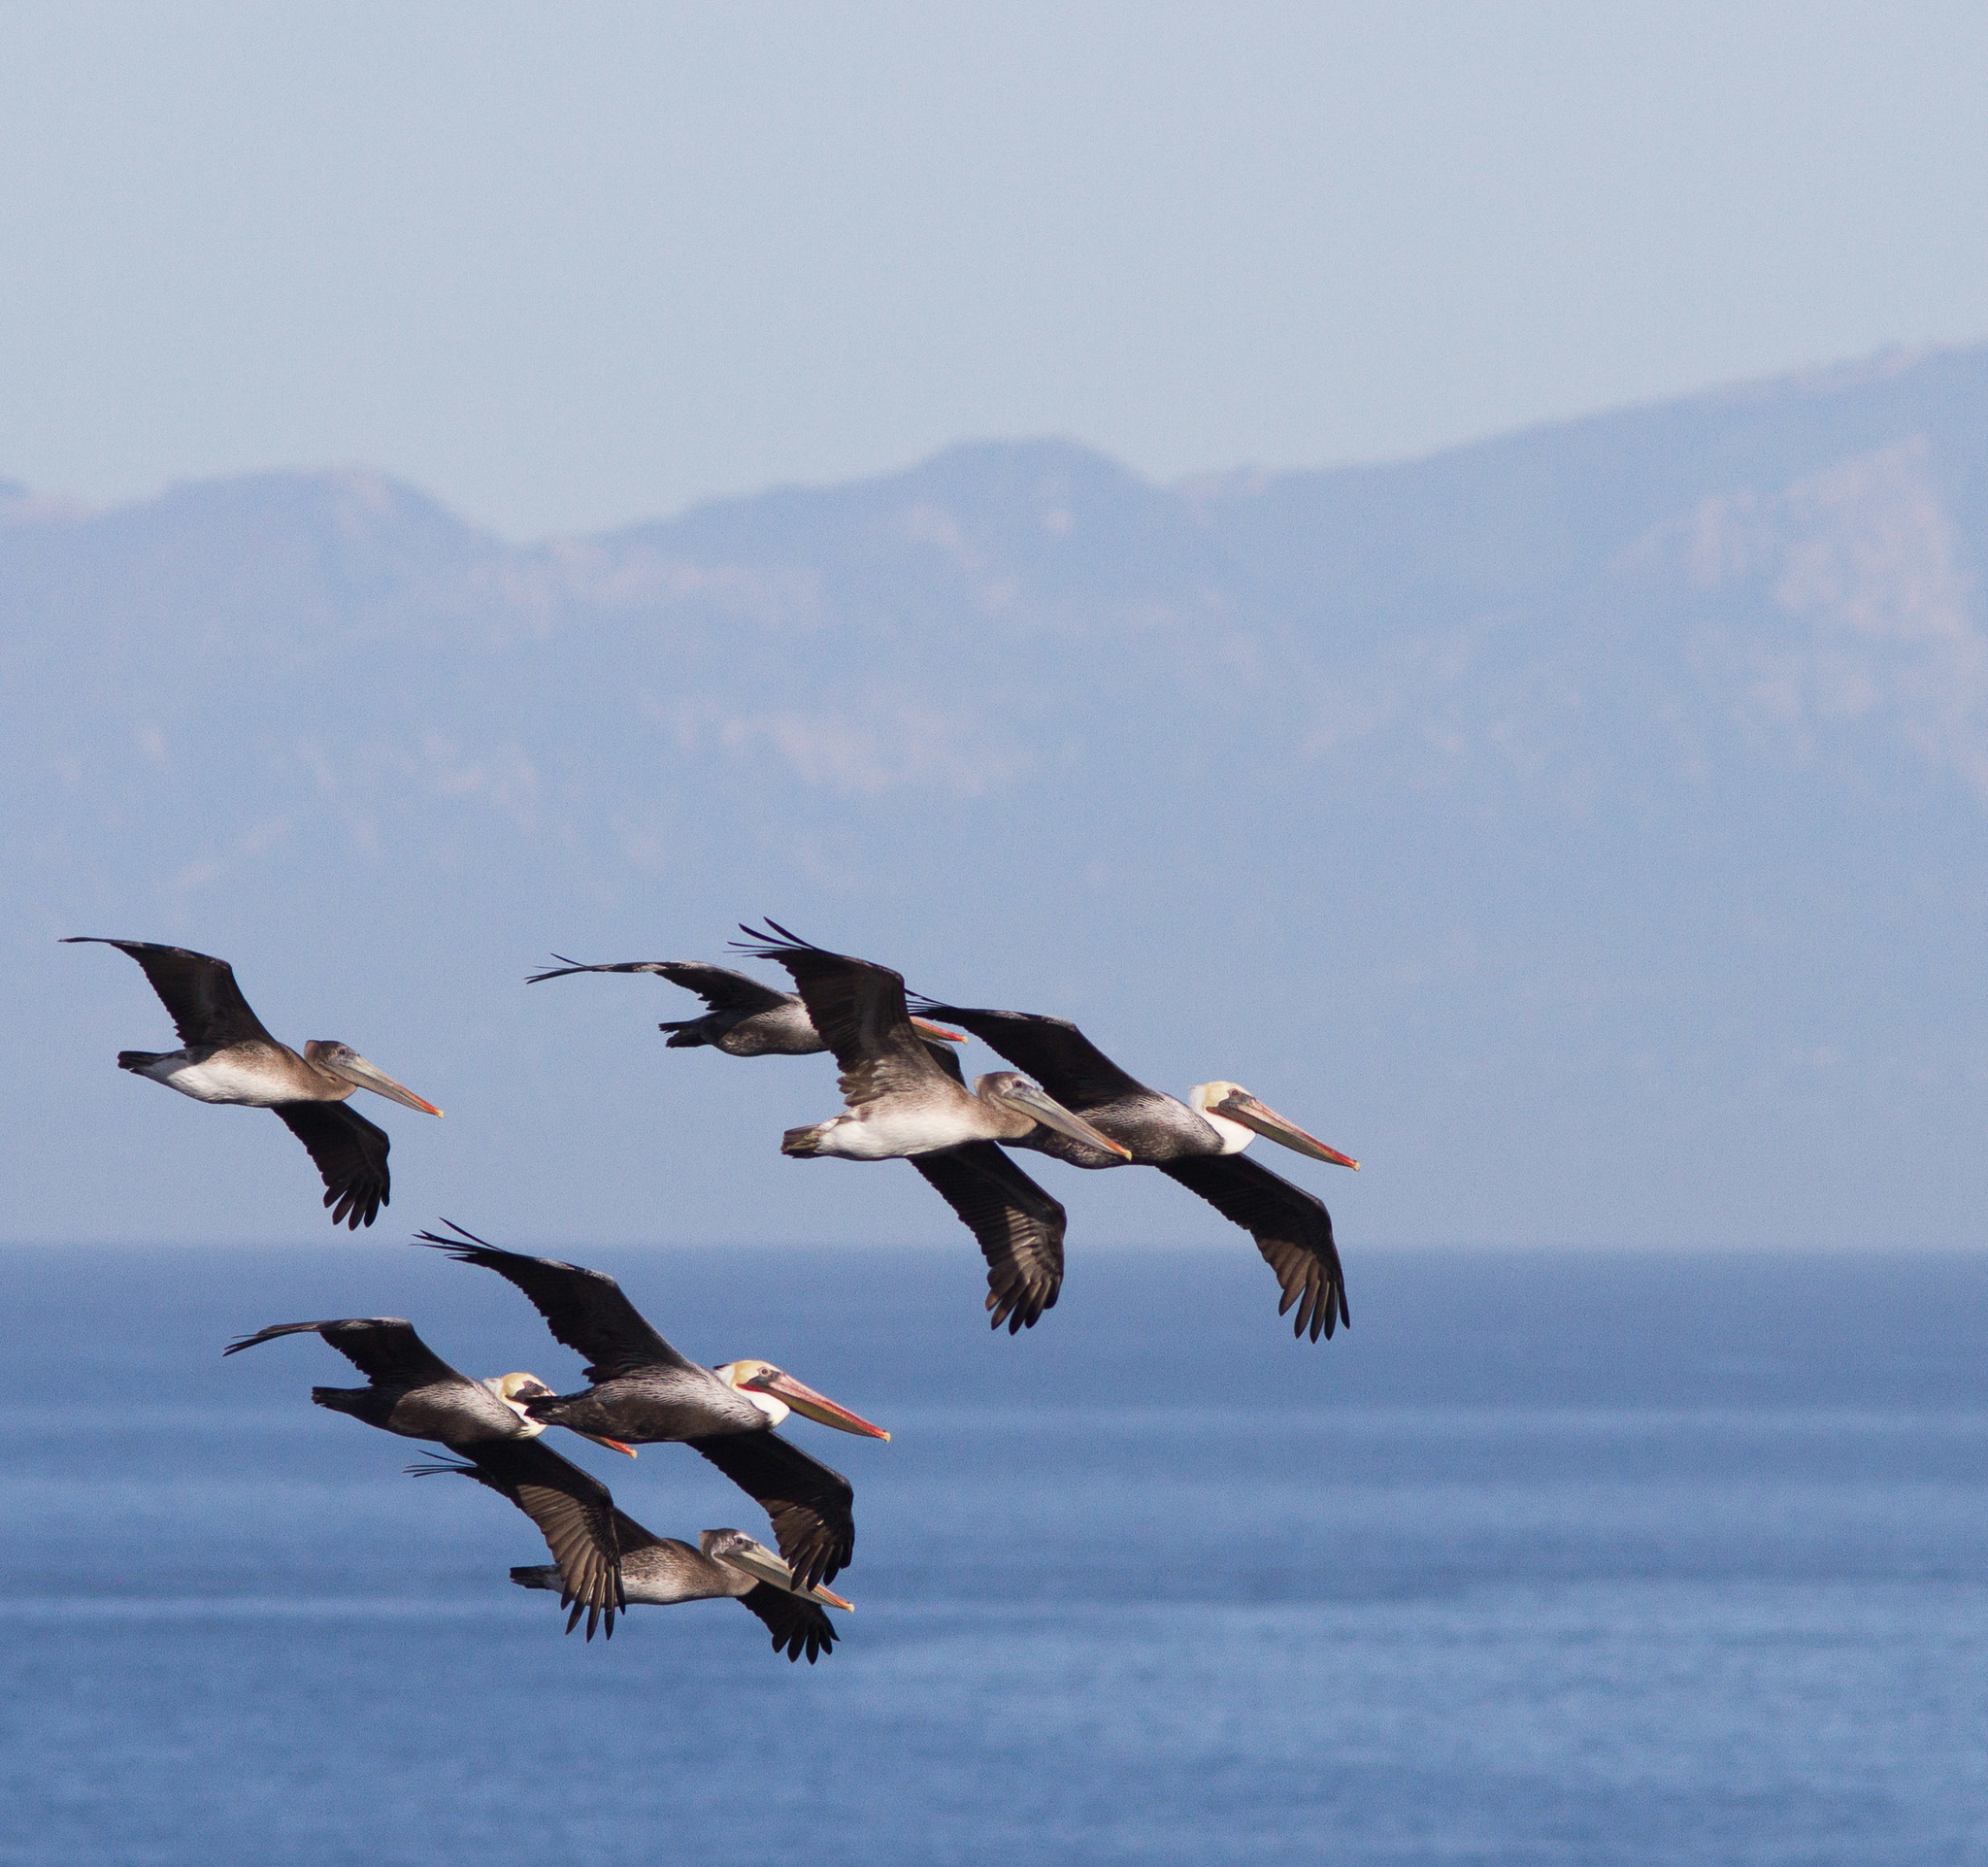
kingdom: Animalia
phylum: Chordata
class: Aves
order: Pelecaniformes
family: Pelecanidae
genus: Pelecanus
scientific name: Pelecanus occidentalis
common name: Brown pelican
